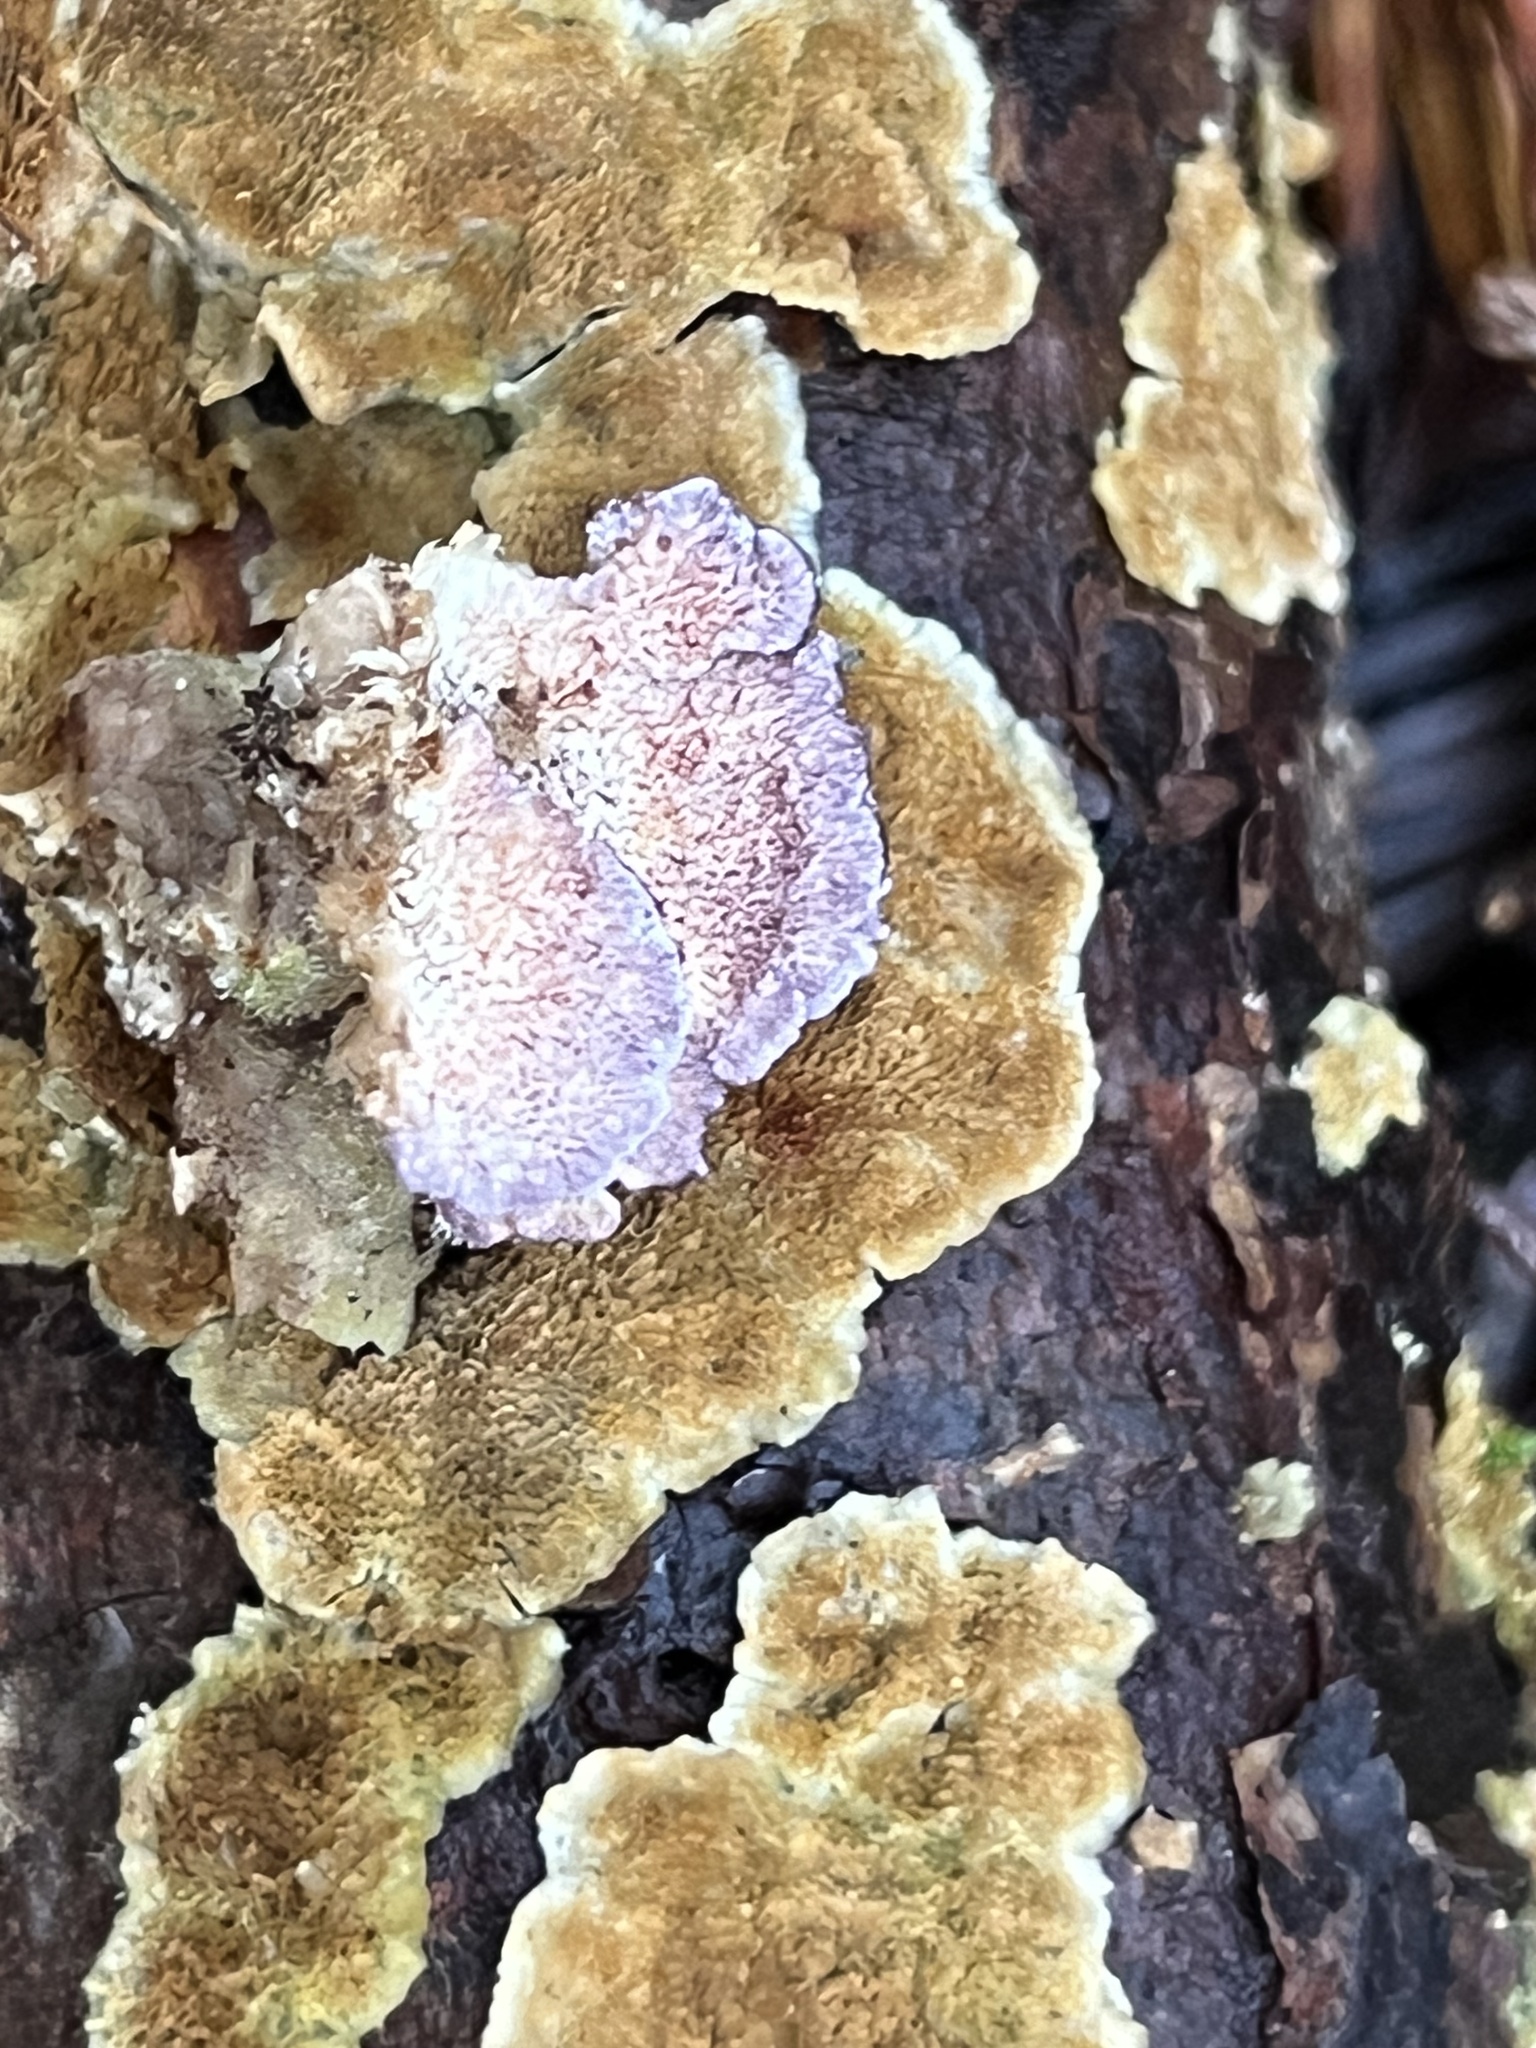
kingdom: Fungi
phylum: Basidiomycota
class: Agaricomycetes
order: Hymenochaetales
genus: Trichaptum
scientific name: Trichaptum abietinum
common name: Purplepore bracket
